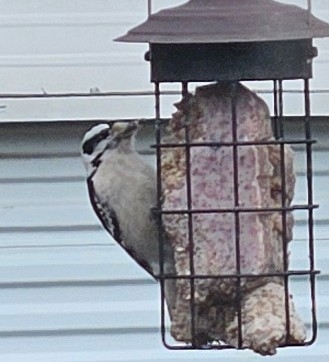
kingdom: Animalia
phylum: Chordata
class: Aves
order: Piciformes
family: Picidae
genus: Dryobates
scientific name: Dryobates pubescens
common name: Downy woodpecker
